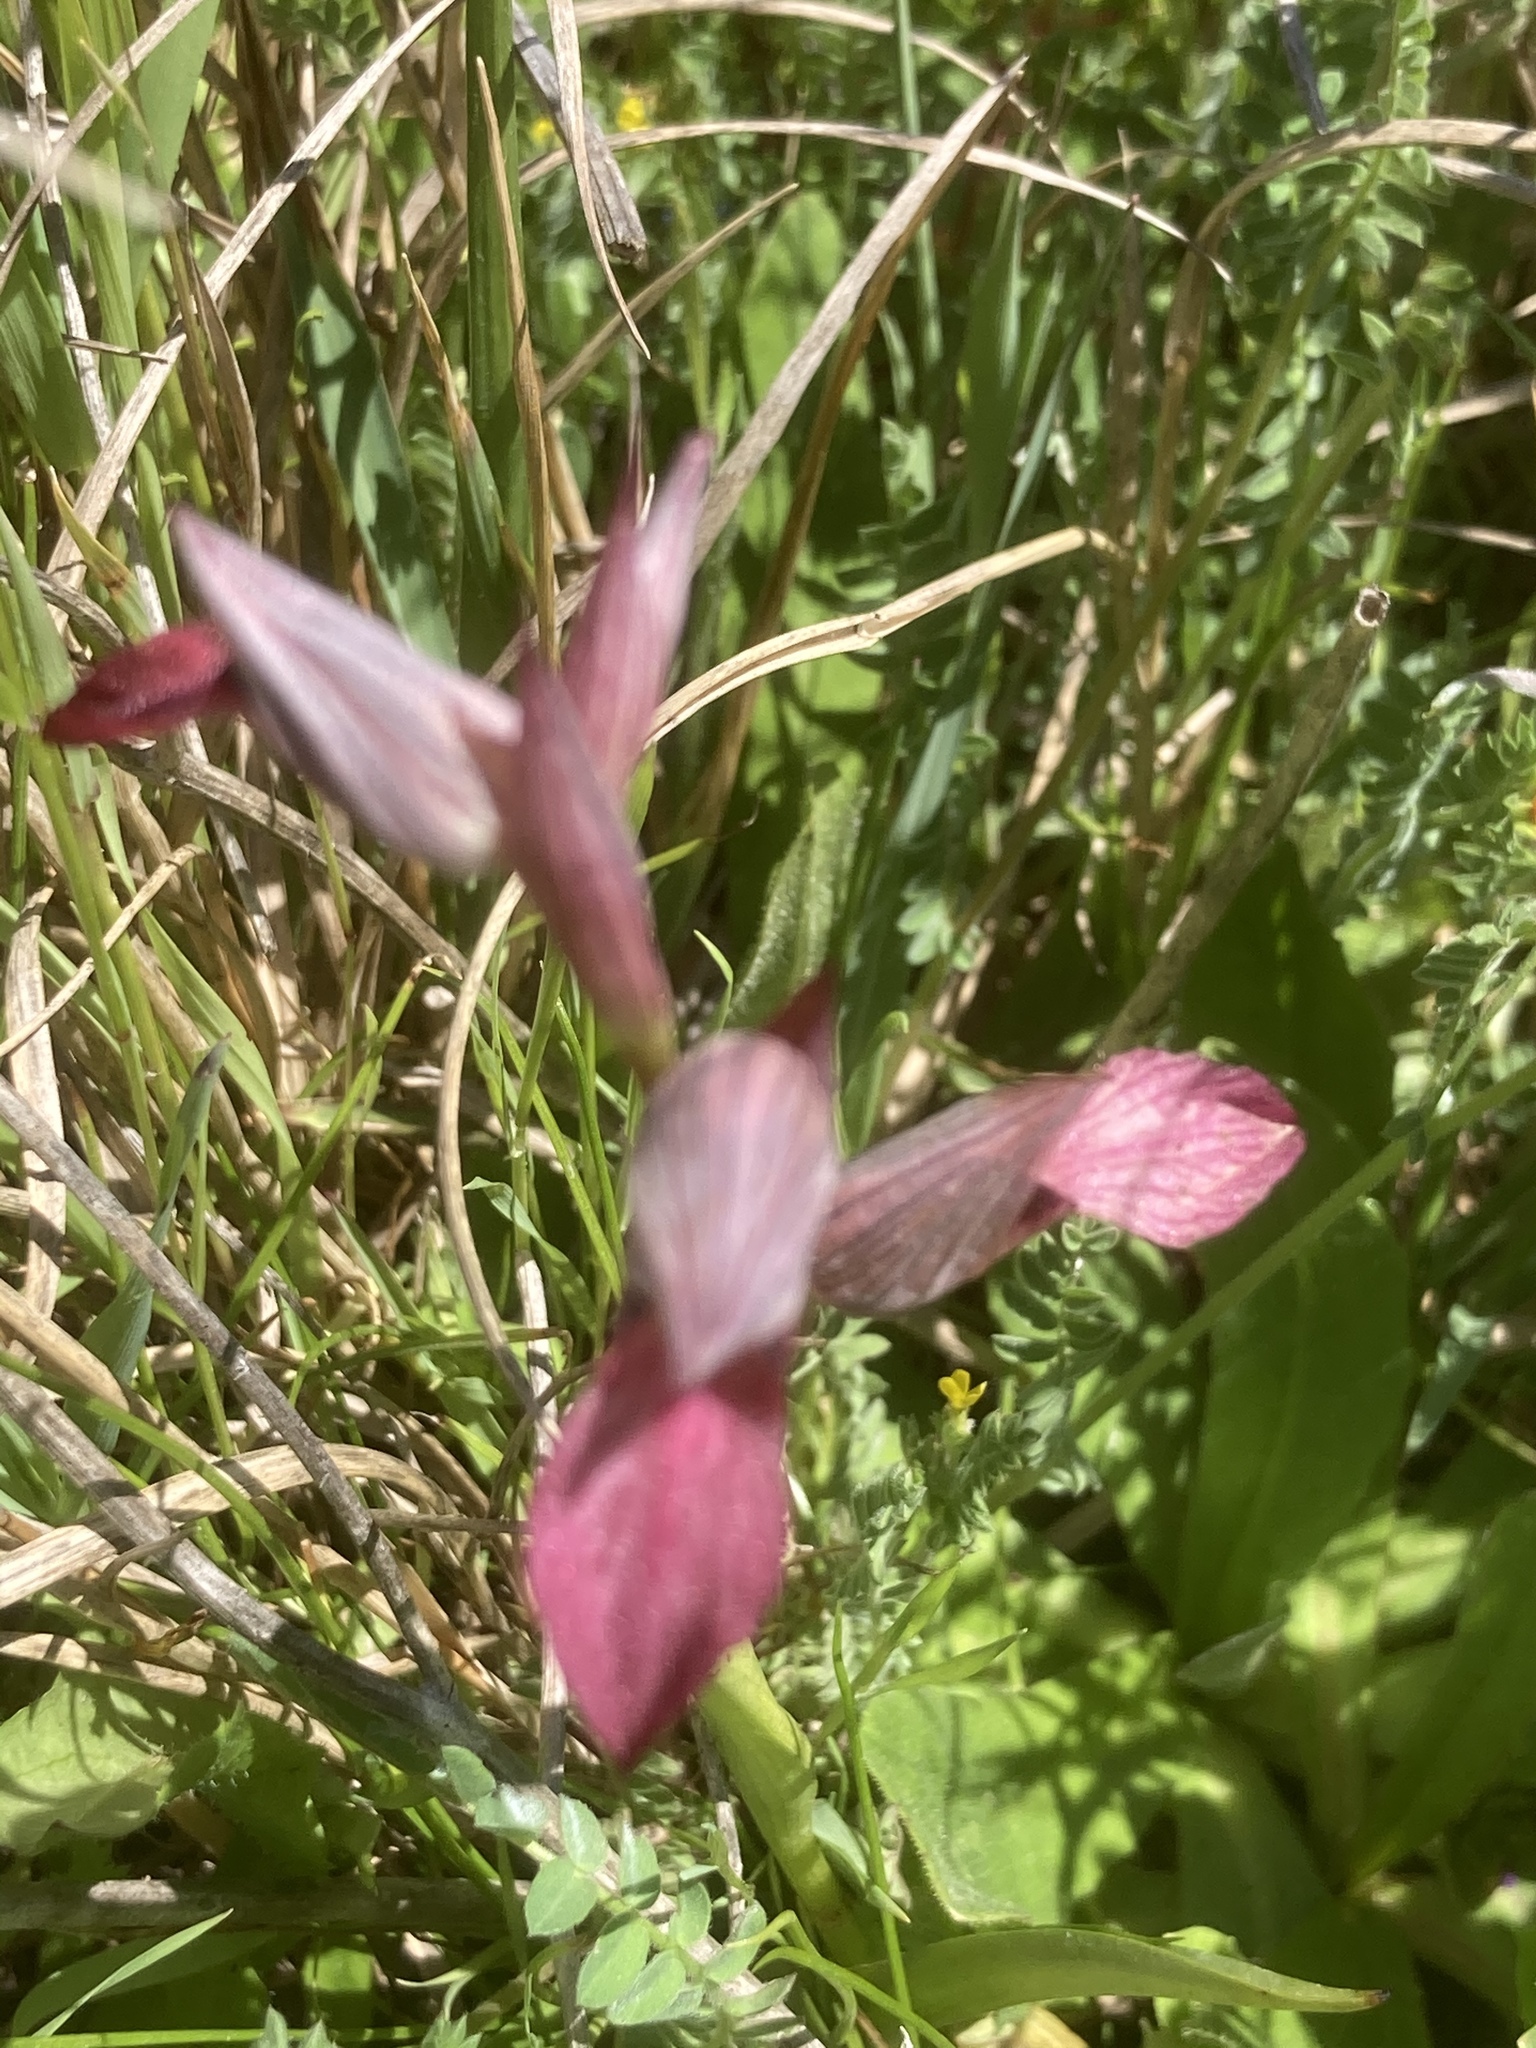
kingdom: Plantae
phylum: Tracheophyta
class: Liliopsida
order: Asparagales
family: Orchidaceae
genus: Serapias
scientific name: Serapias lingua
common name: Tongue-orchid
